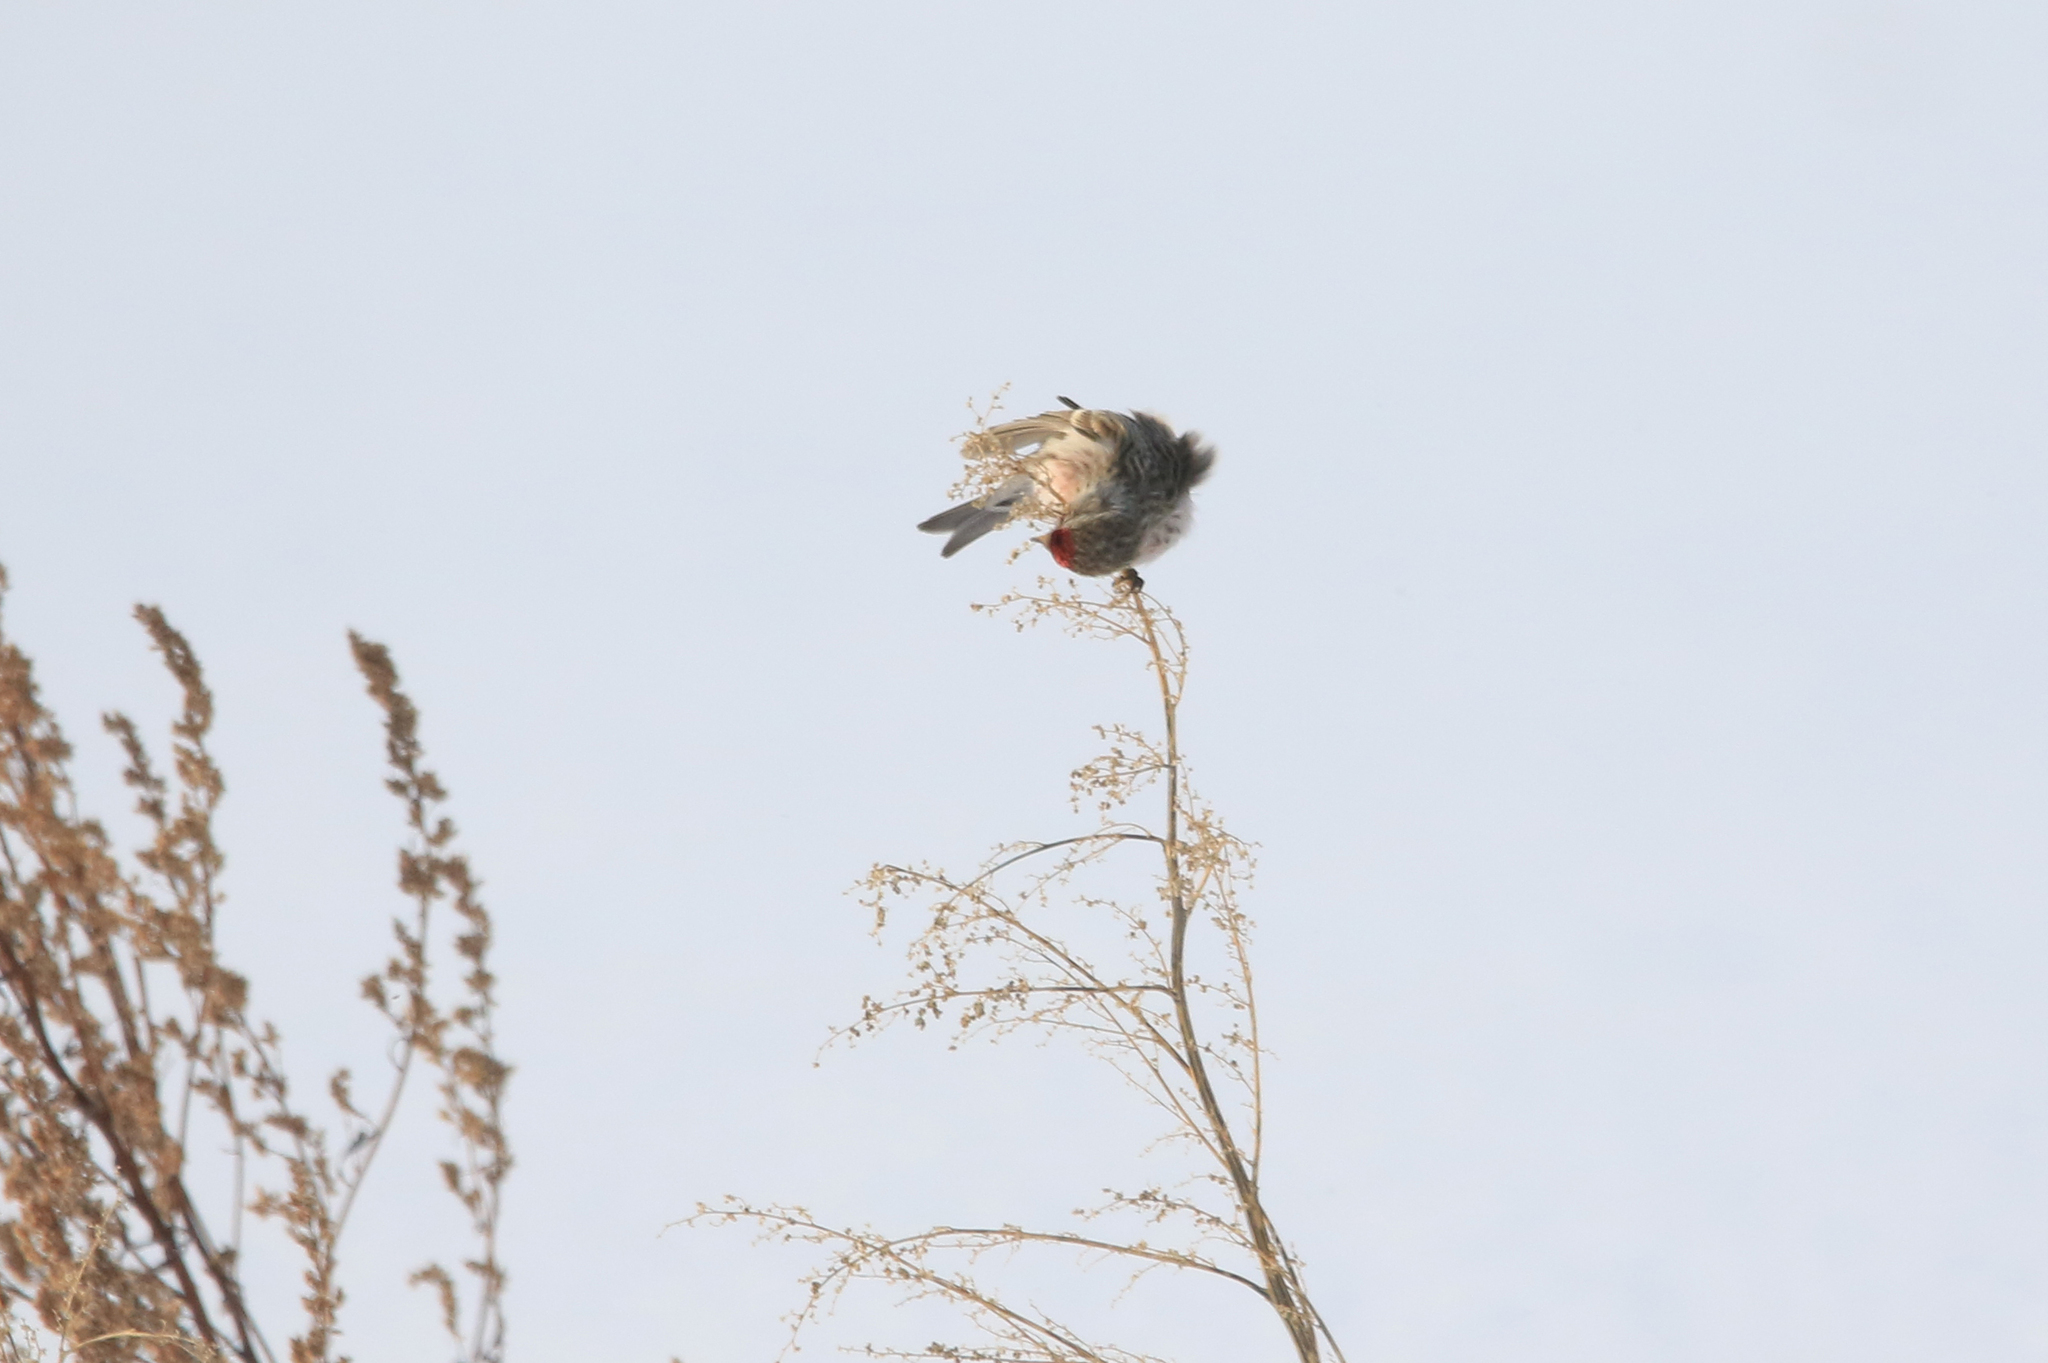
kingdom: Animalia
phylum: Chordata
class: Aves
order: Passeriformes
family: Fringillidae
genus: Acanthis
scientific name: Acanthis flammea
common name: Common redpoll
